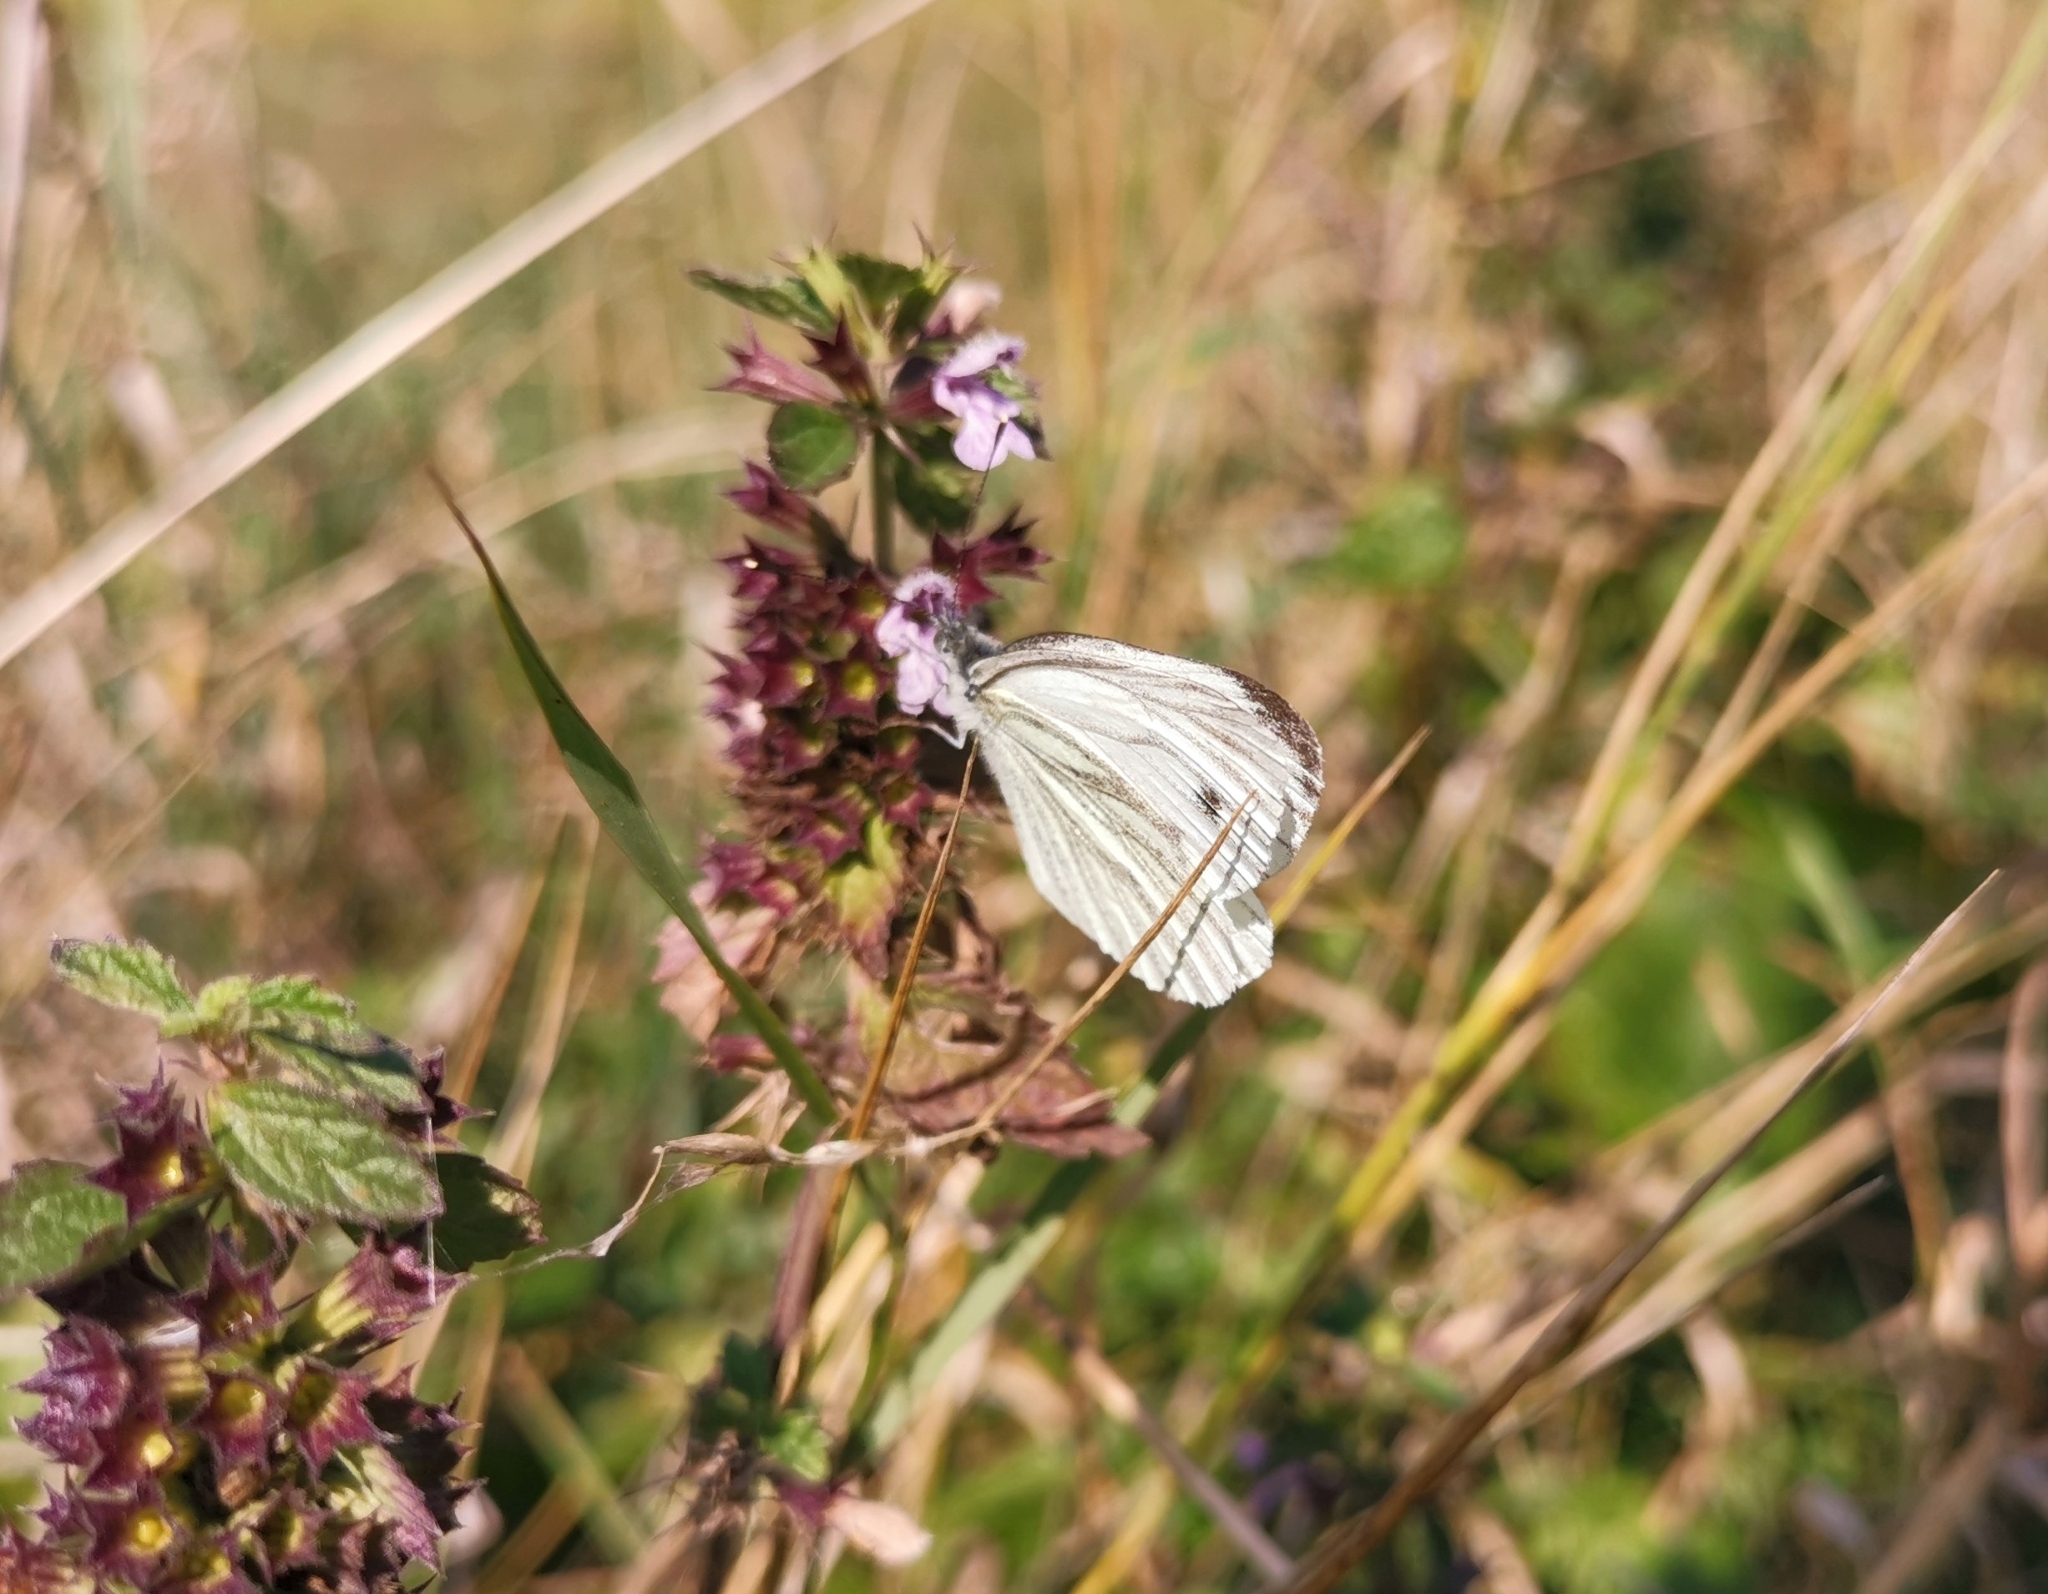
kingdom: Animalia
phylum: Arthropoda
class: Insecta
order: Lepidoptera
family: Pieridae
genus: Pieris
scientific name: Pieris napi
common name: Green-veined white
